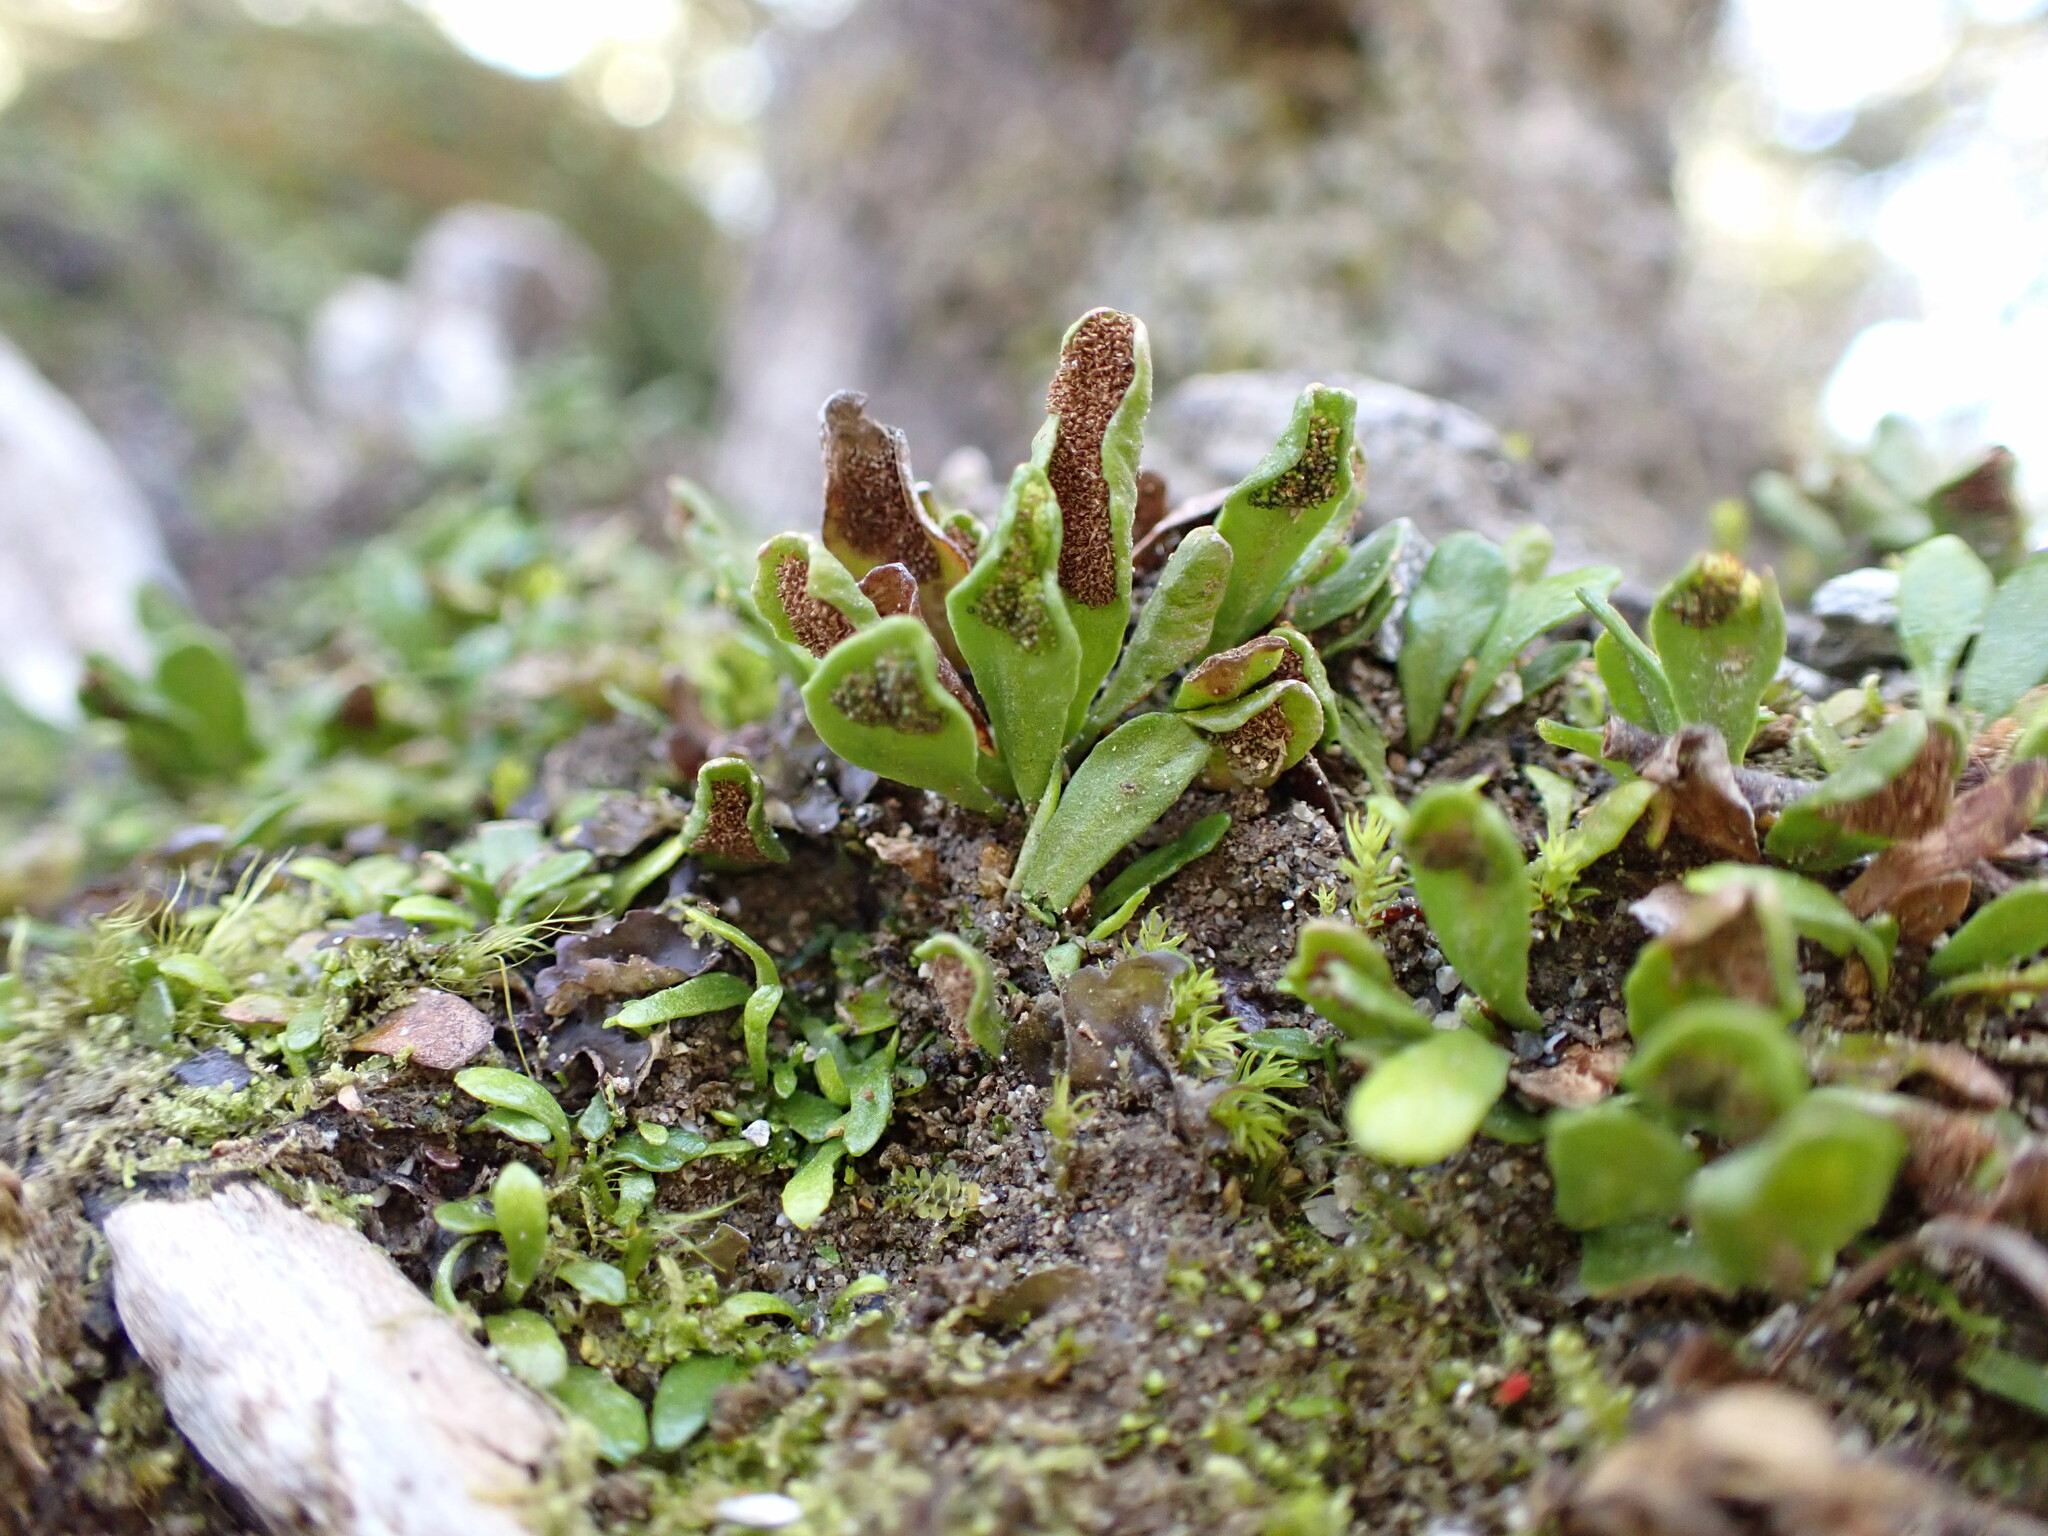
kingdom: Plantae
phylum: Tracheophyta
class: Polypodiopsida
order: Polypodiales
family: Polypodiaceae
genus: Notogrammitis
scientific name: Notogrammitis crassior
